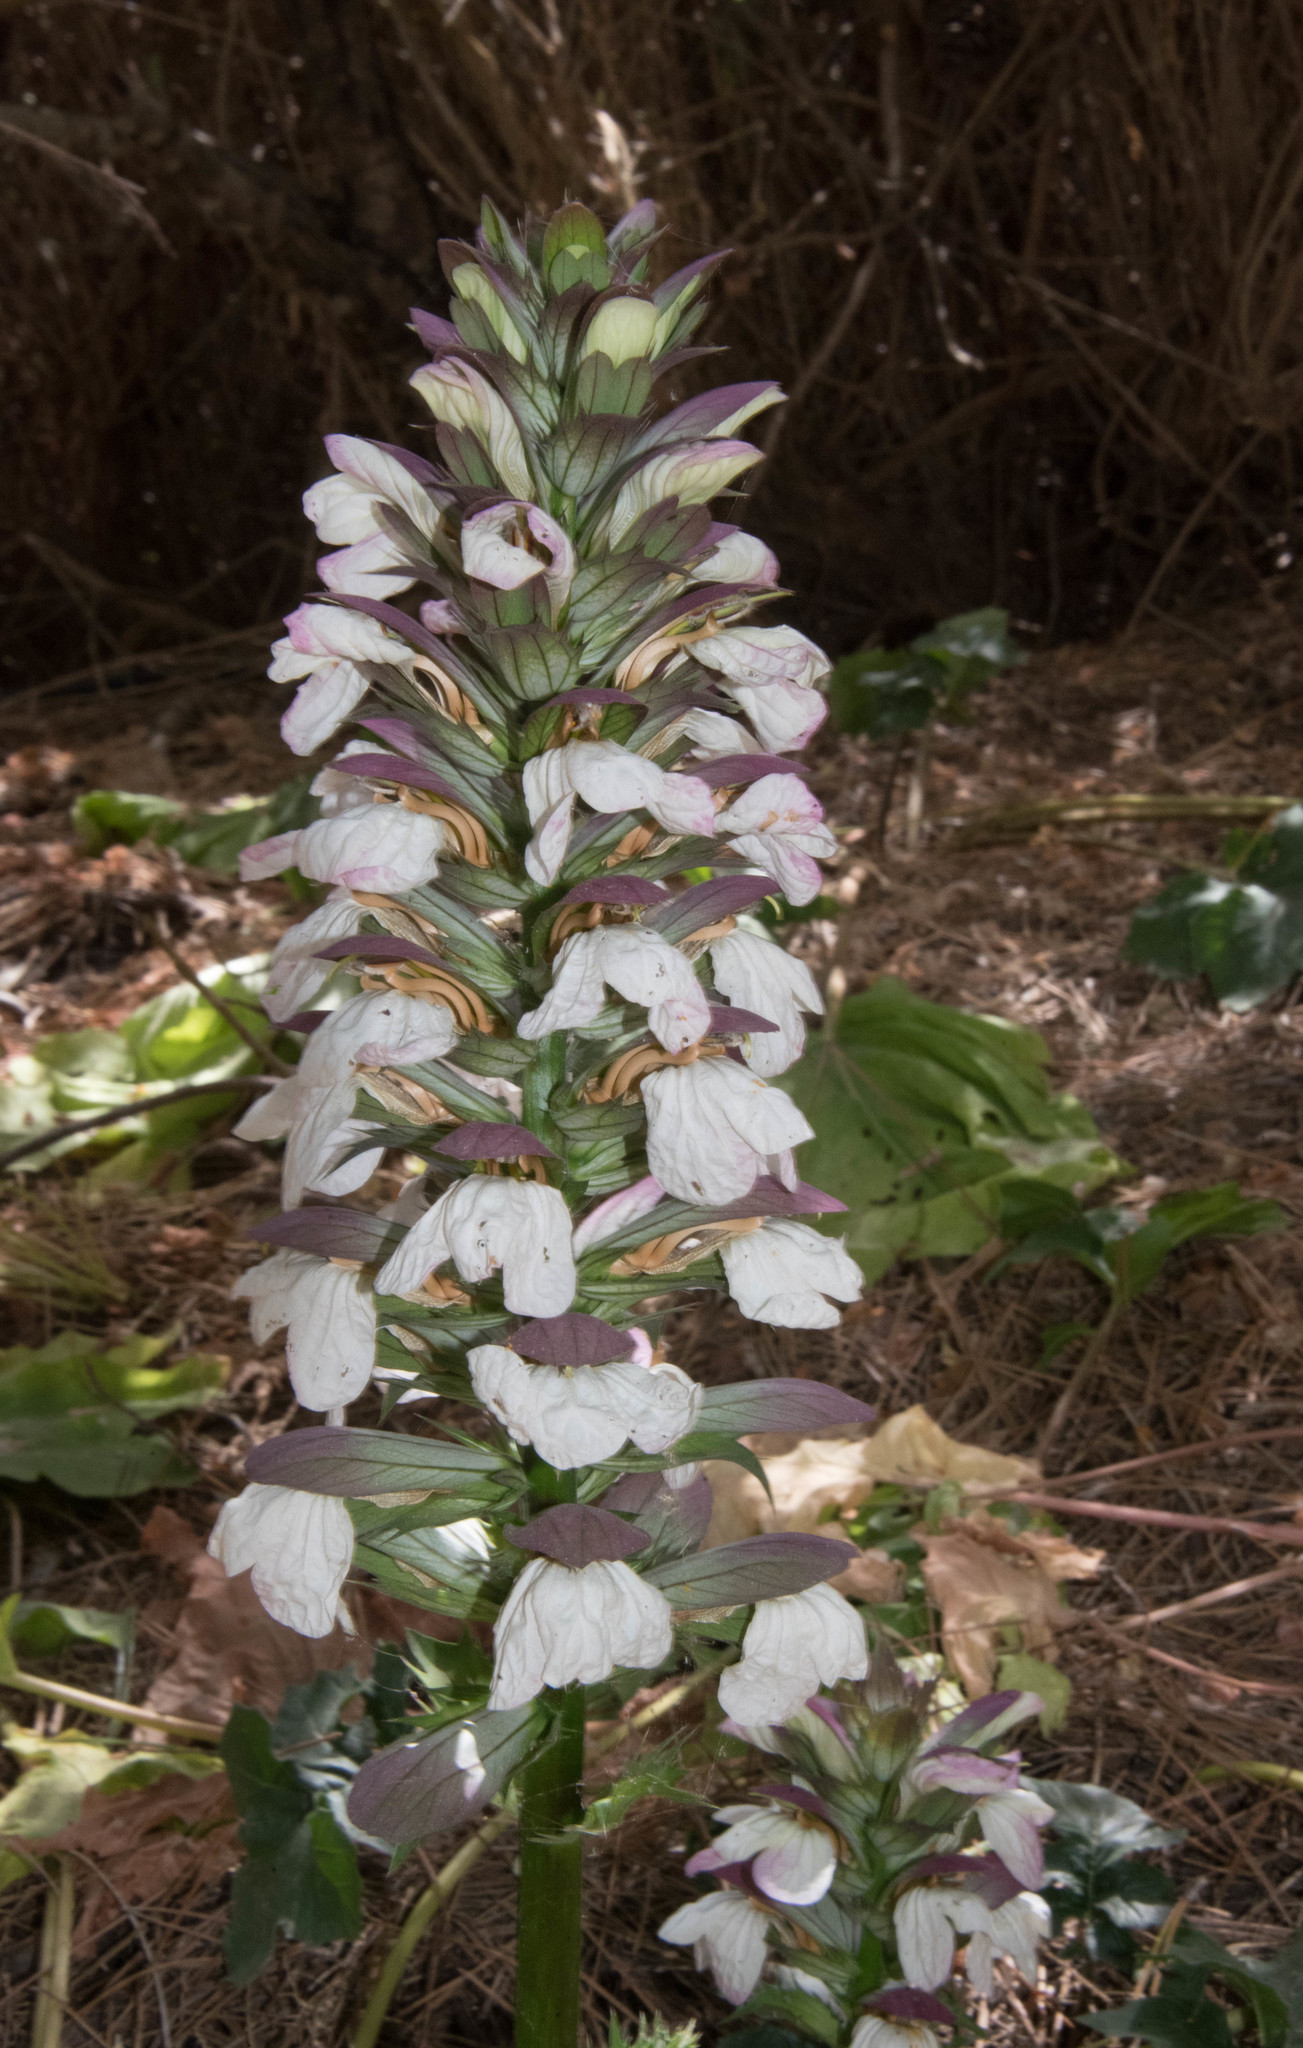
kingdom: Plantae
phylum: Tracheophyta
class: Magnoliopsida
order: Lamiales
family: Acanthaceae
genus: Acanthus
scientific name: Acanthus mollis
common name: Bear's-breech
